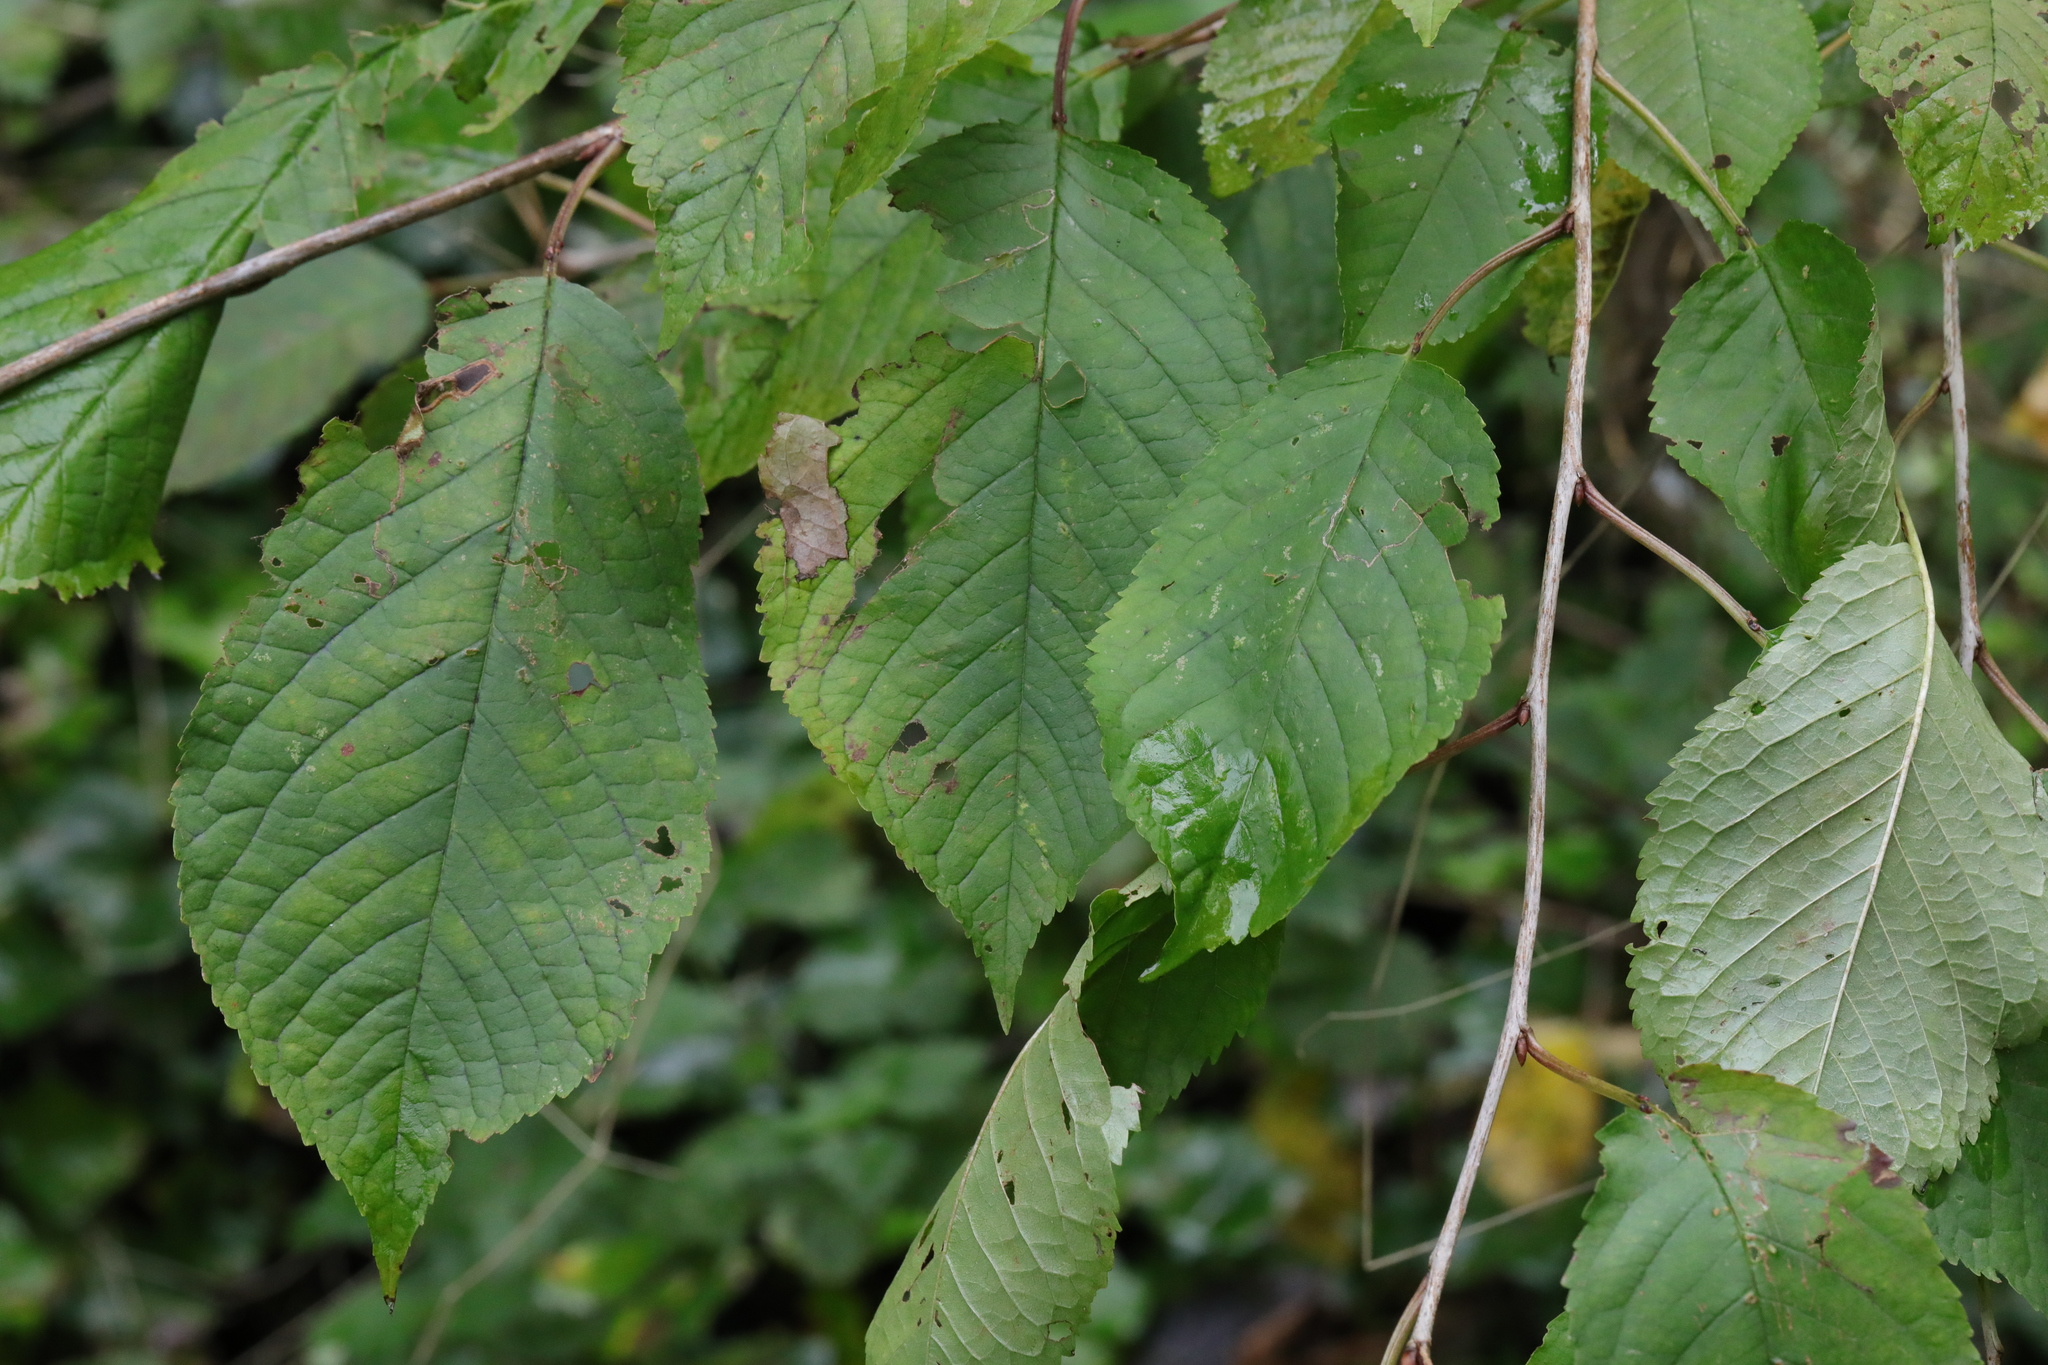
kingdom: Plantae
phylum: Tracheophyta
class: Magnoliopsida
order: Rosales
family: Rosaceae
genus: Prunus
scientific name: Prunus avium
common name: Sweet cherry
